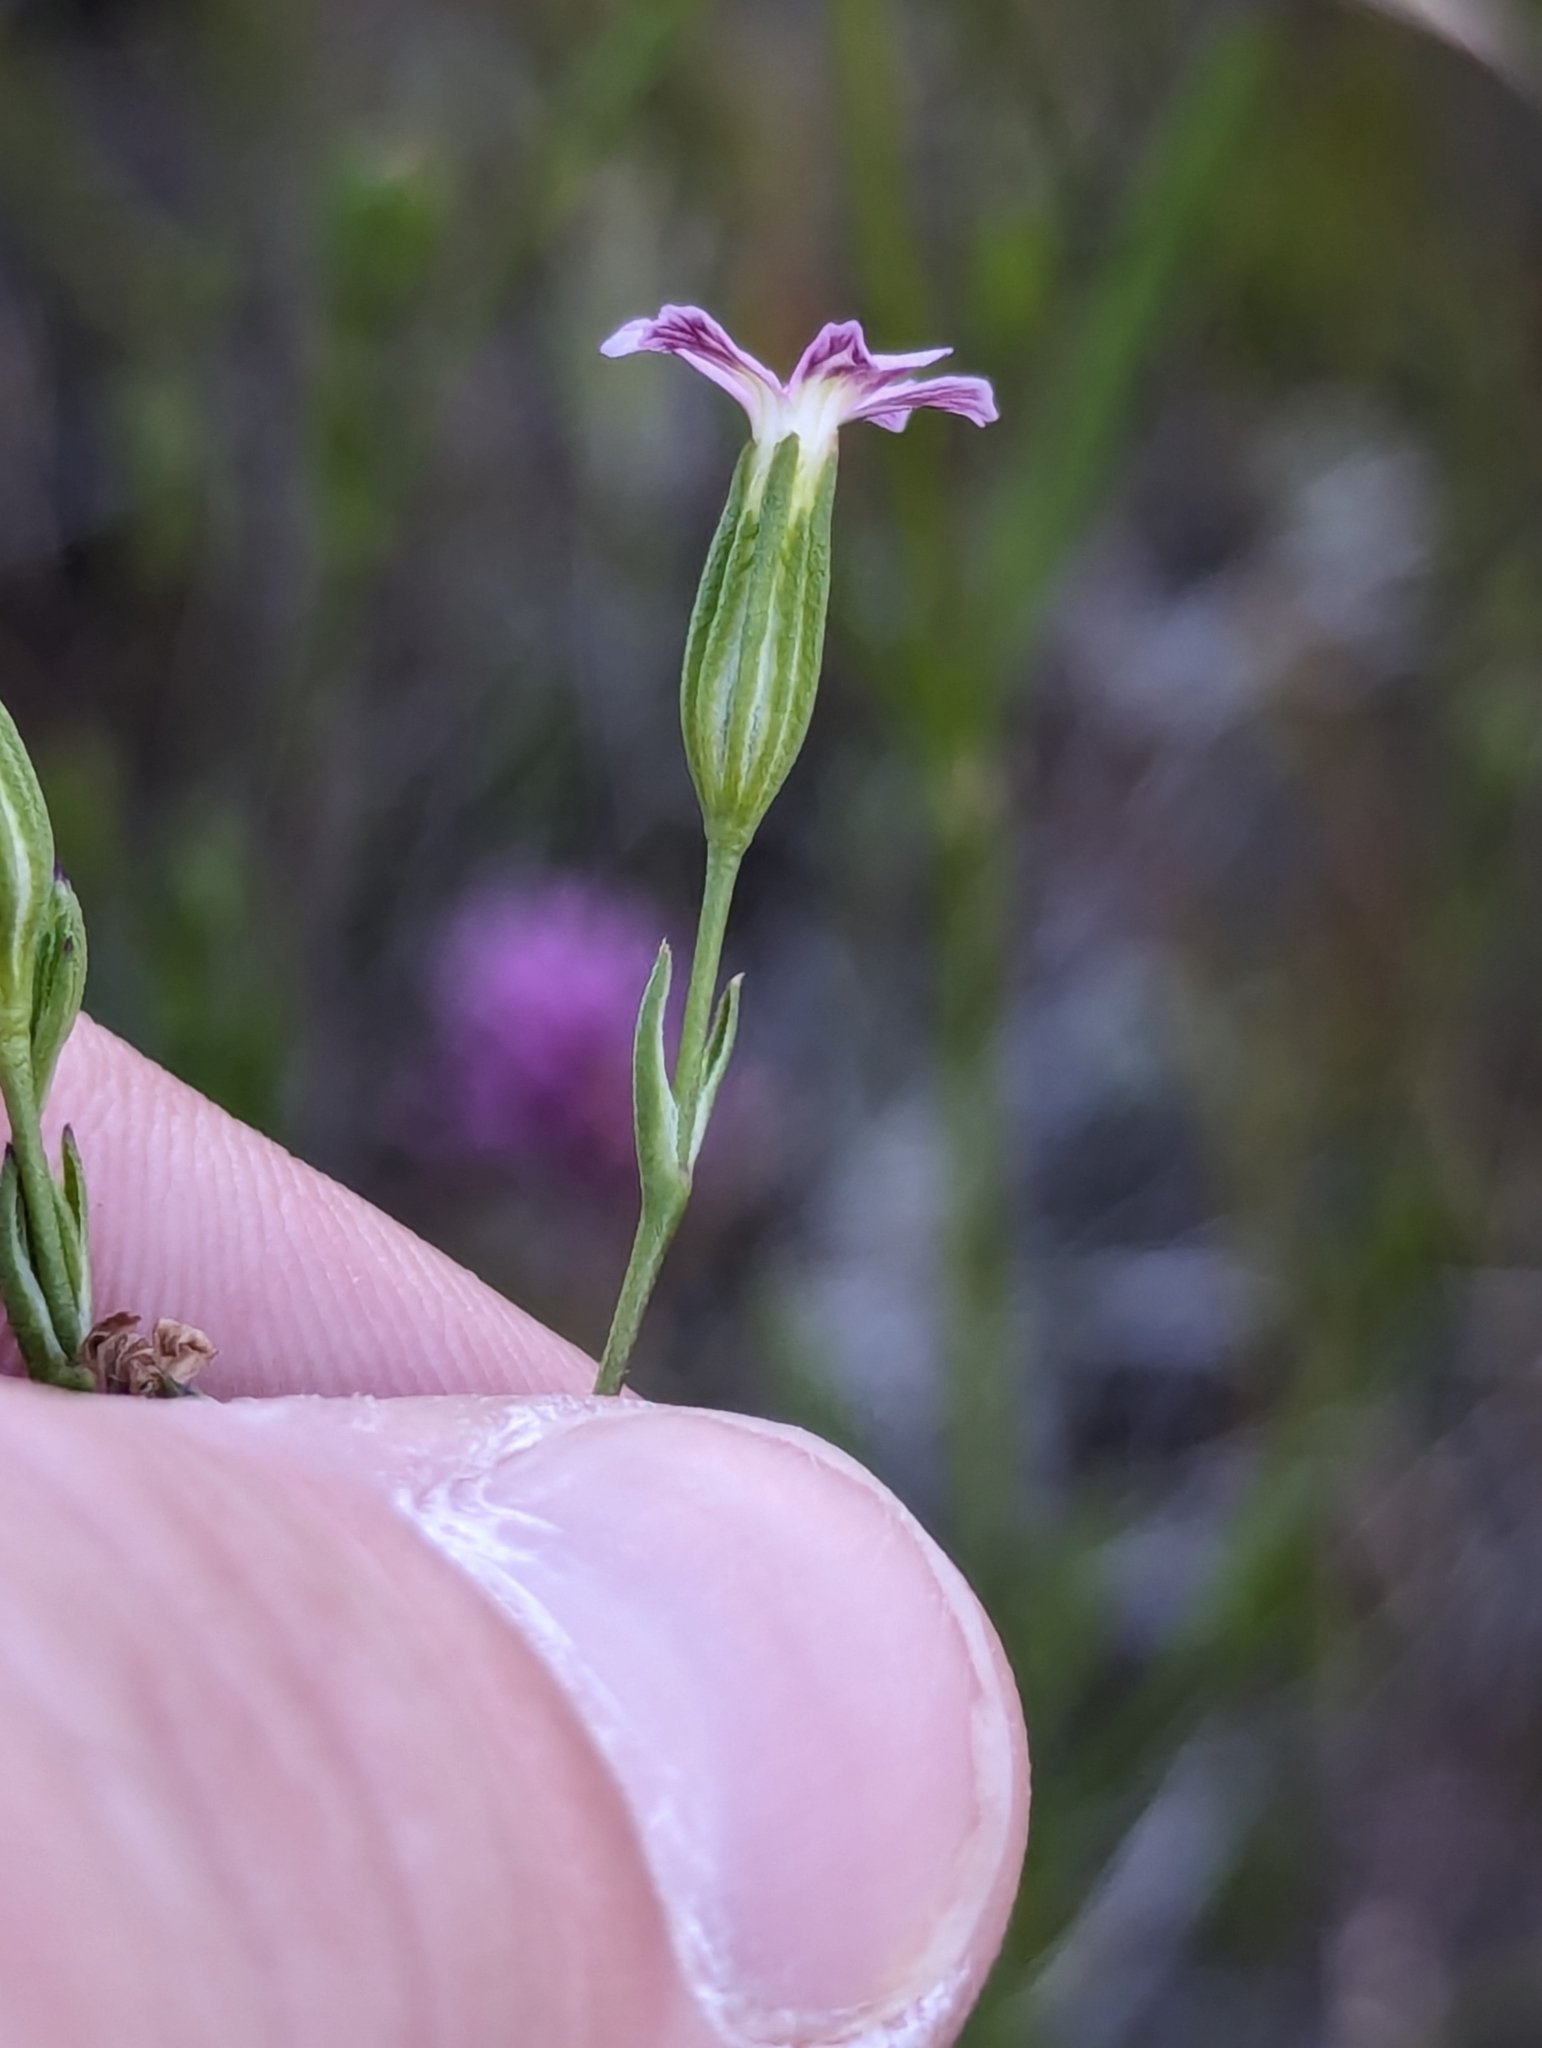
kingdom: Plantae
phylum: Tracheophyta
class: Magnoliopsida
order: Caryophyllales
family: Caryophyllaceae
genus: Silene
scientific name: Silene antirrhina
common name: Sleepy catchfly
